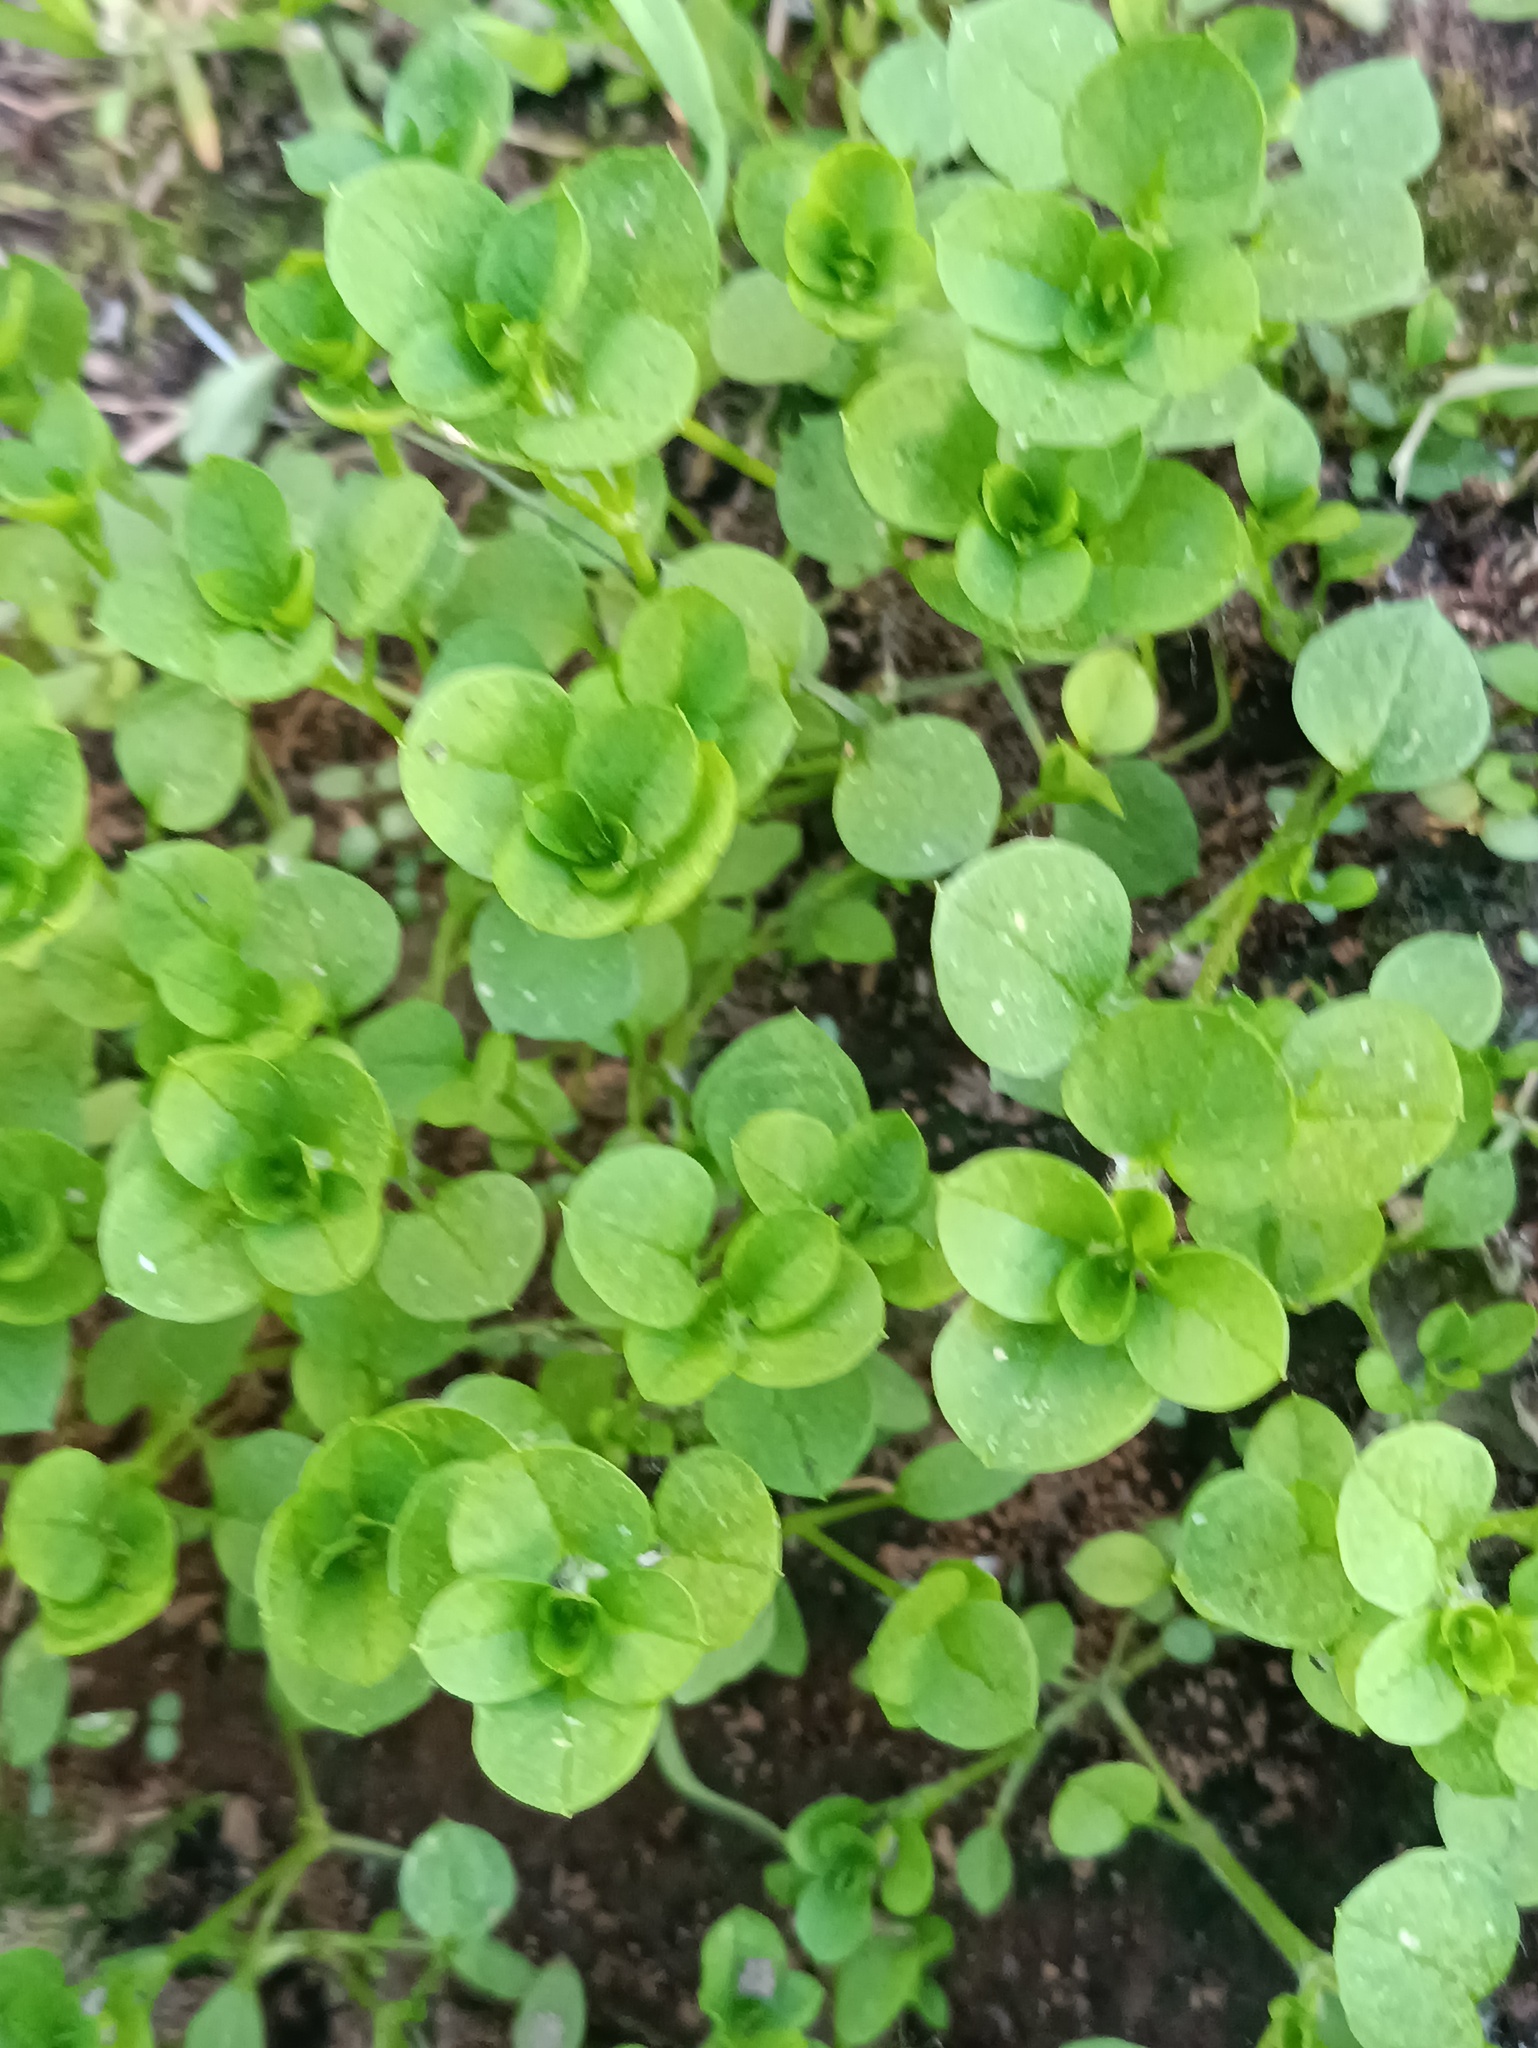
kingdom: Plantae
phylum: Tracheophyta
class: Magnoliopsida
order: Caryophyllales
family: Caryophyllaceae
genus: Stellaria
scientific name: Stellaria media
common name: Common chickweed
